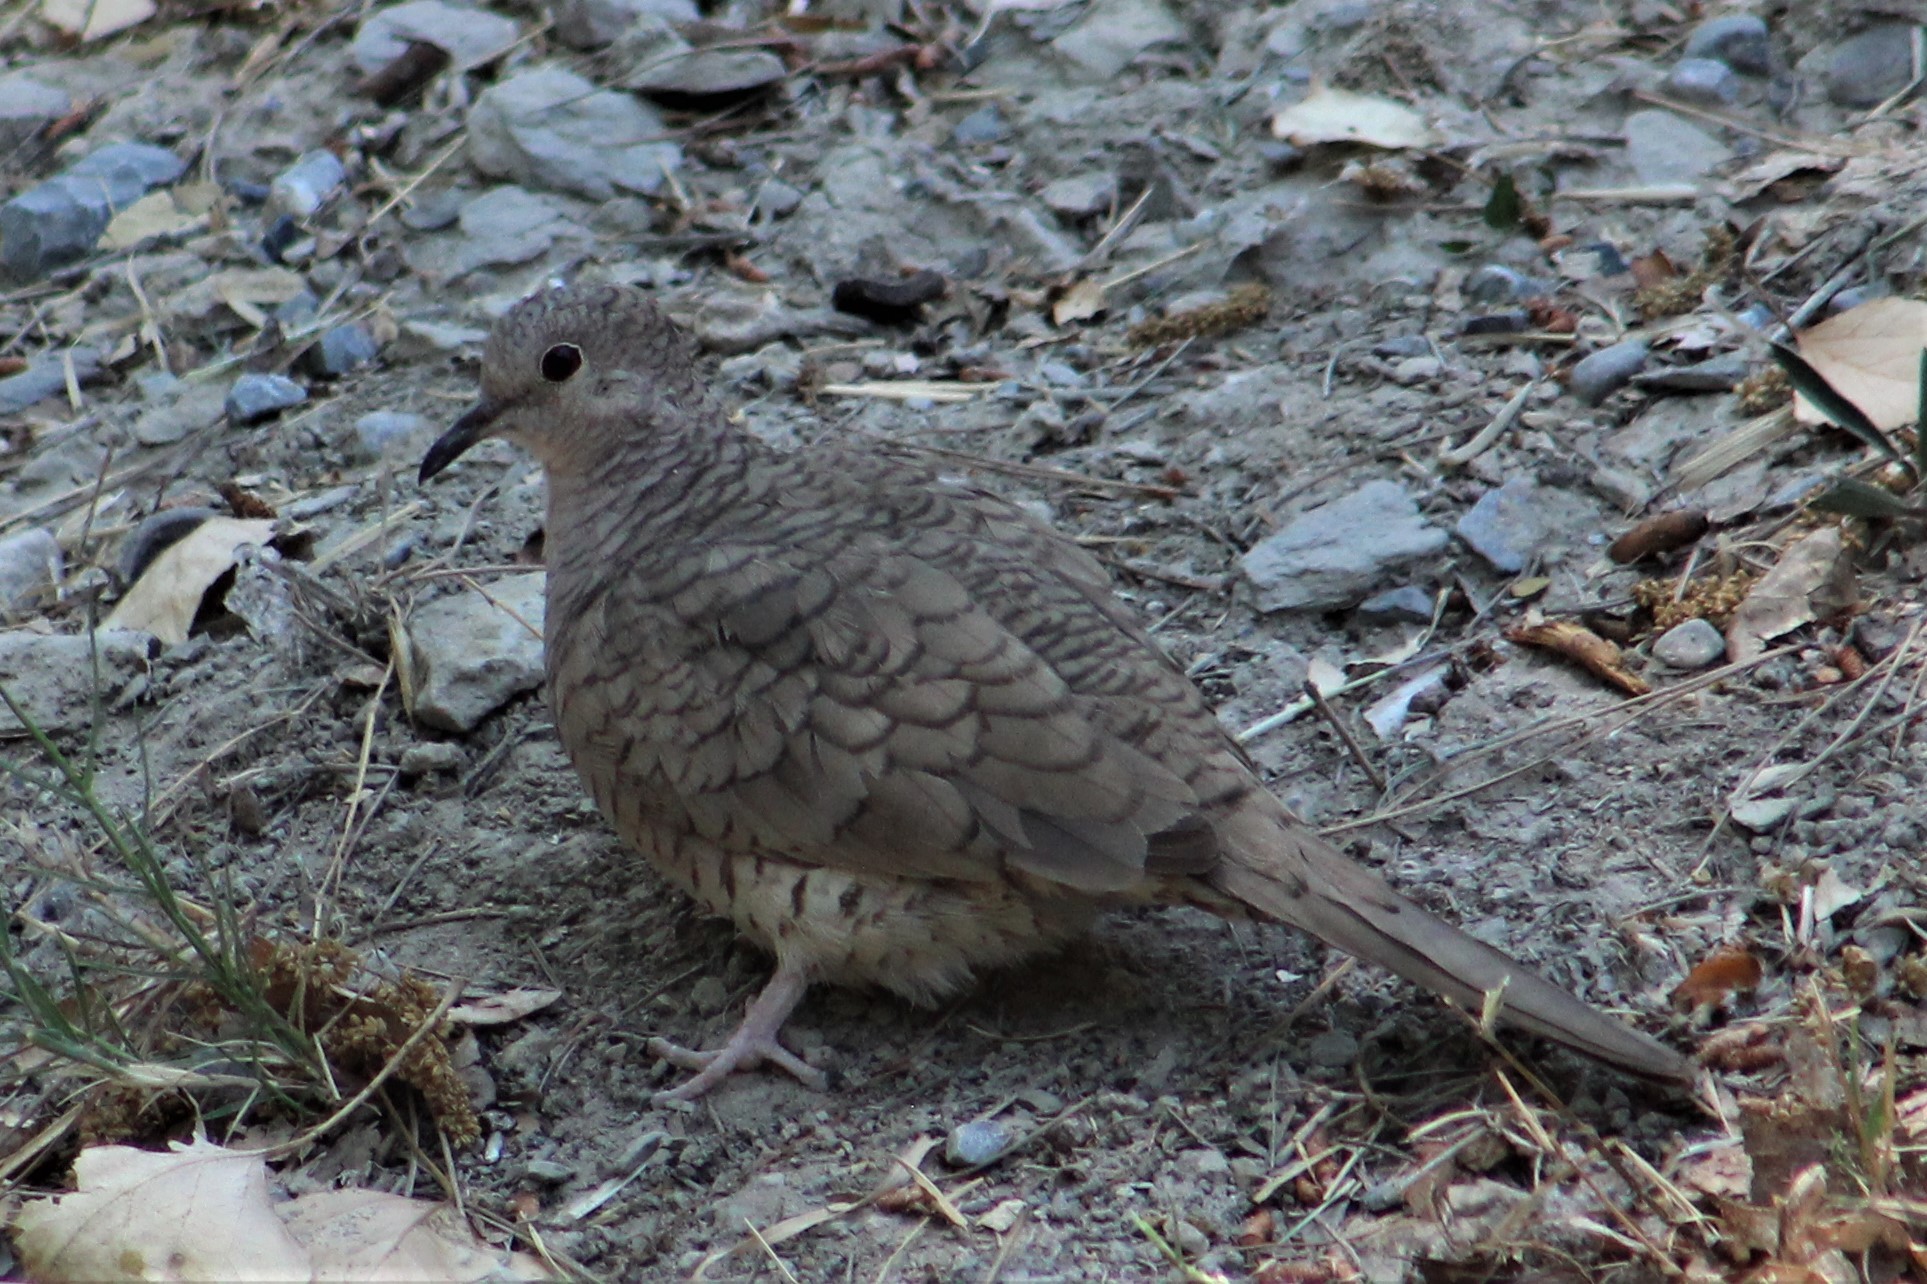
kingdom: Animalia
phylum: Chordata
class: Aves
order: Columbiformes
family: Columbidae
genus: Columbina
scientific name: Columbina inca
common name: Inca dove
